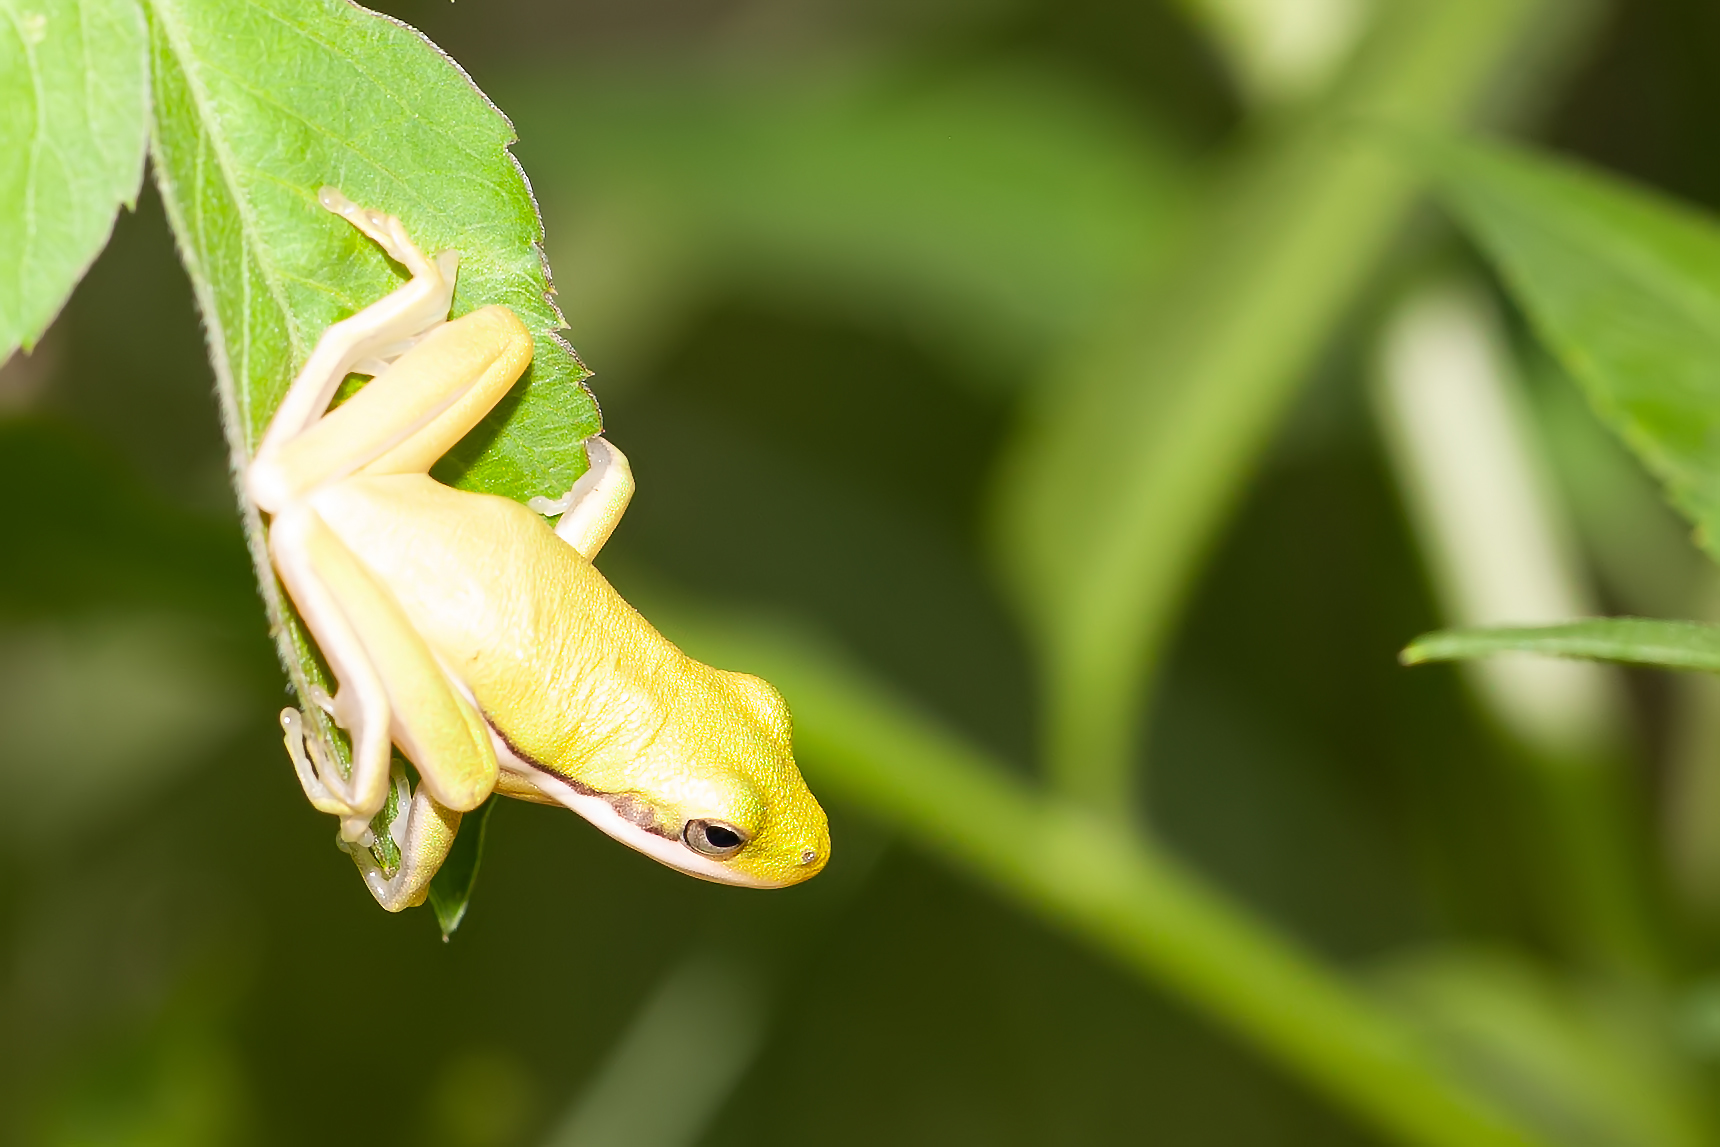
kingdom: Animalia
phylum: Chordata
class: Amphibia
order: Anura
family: Hylidae
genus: Dryophytes
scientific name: Dryophytes cinereus
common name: Green treefrog
